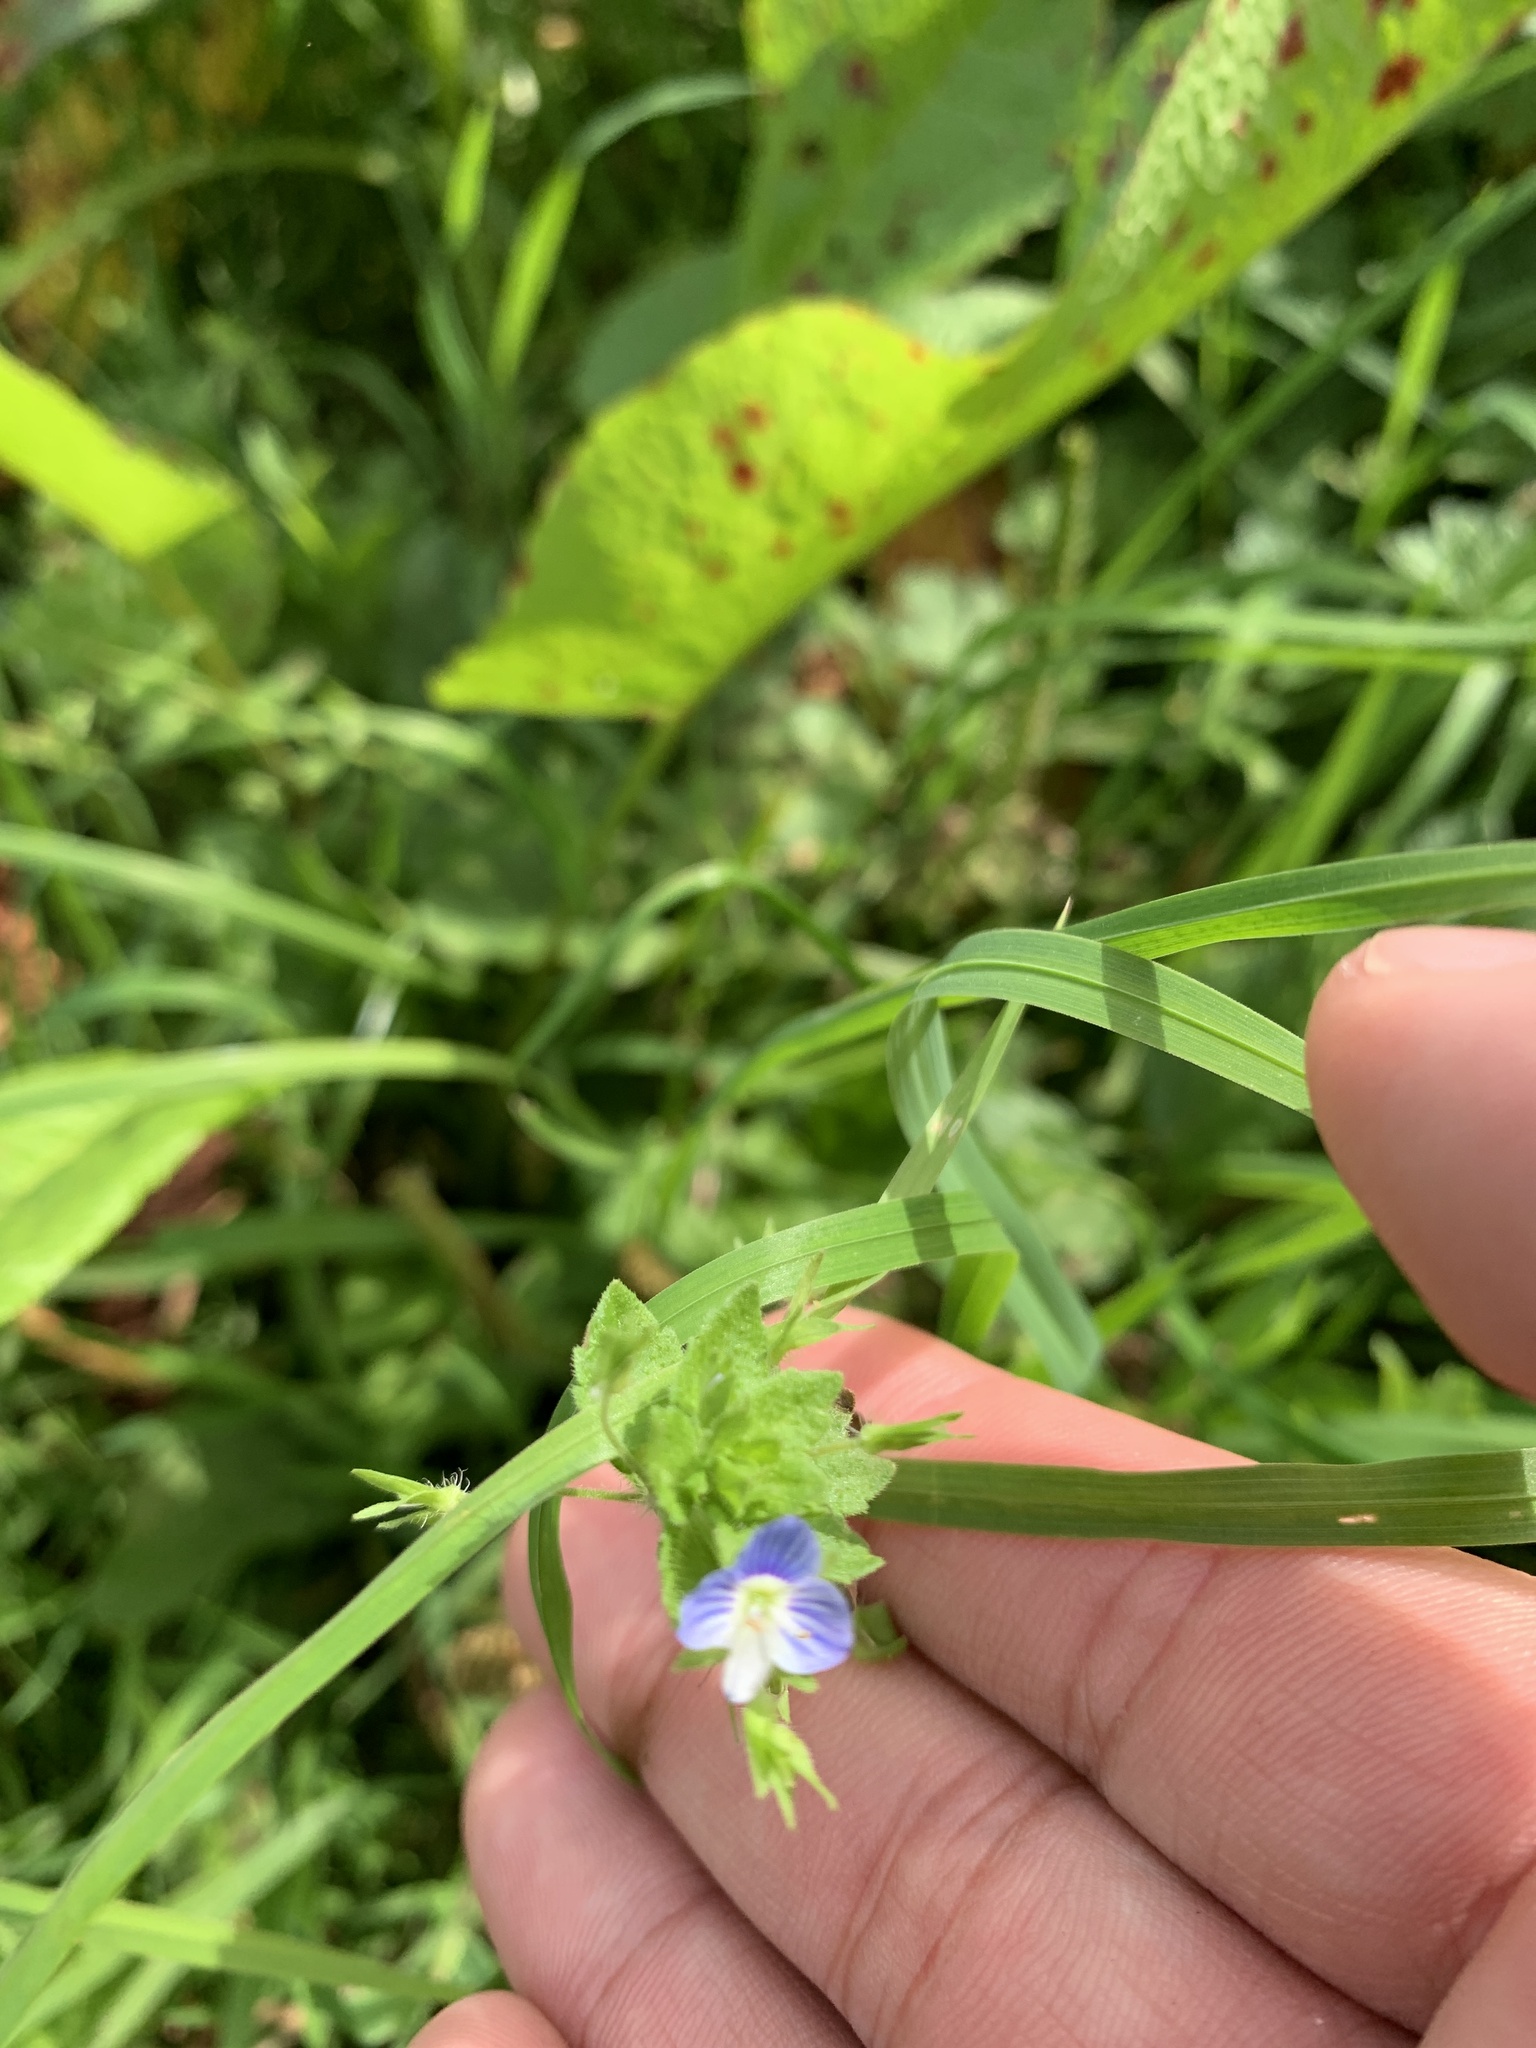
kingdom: Plantae
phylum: Tracheophyta
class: Magnoliopsida
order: Lamiales
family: Plantaginaceae
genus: Veronica
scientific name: Veronica persica
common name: Common field-speedwell
